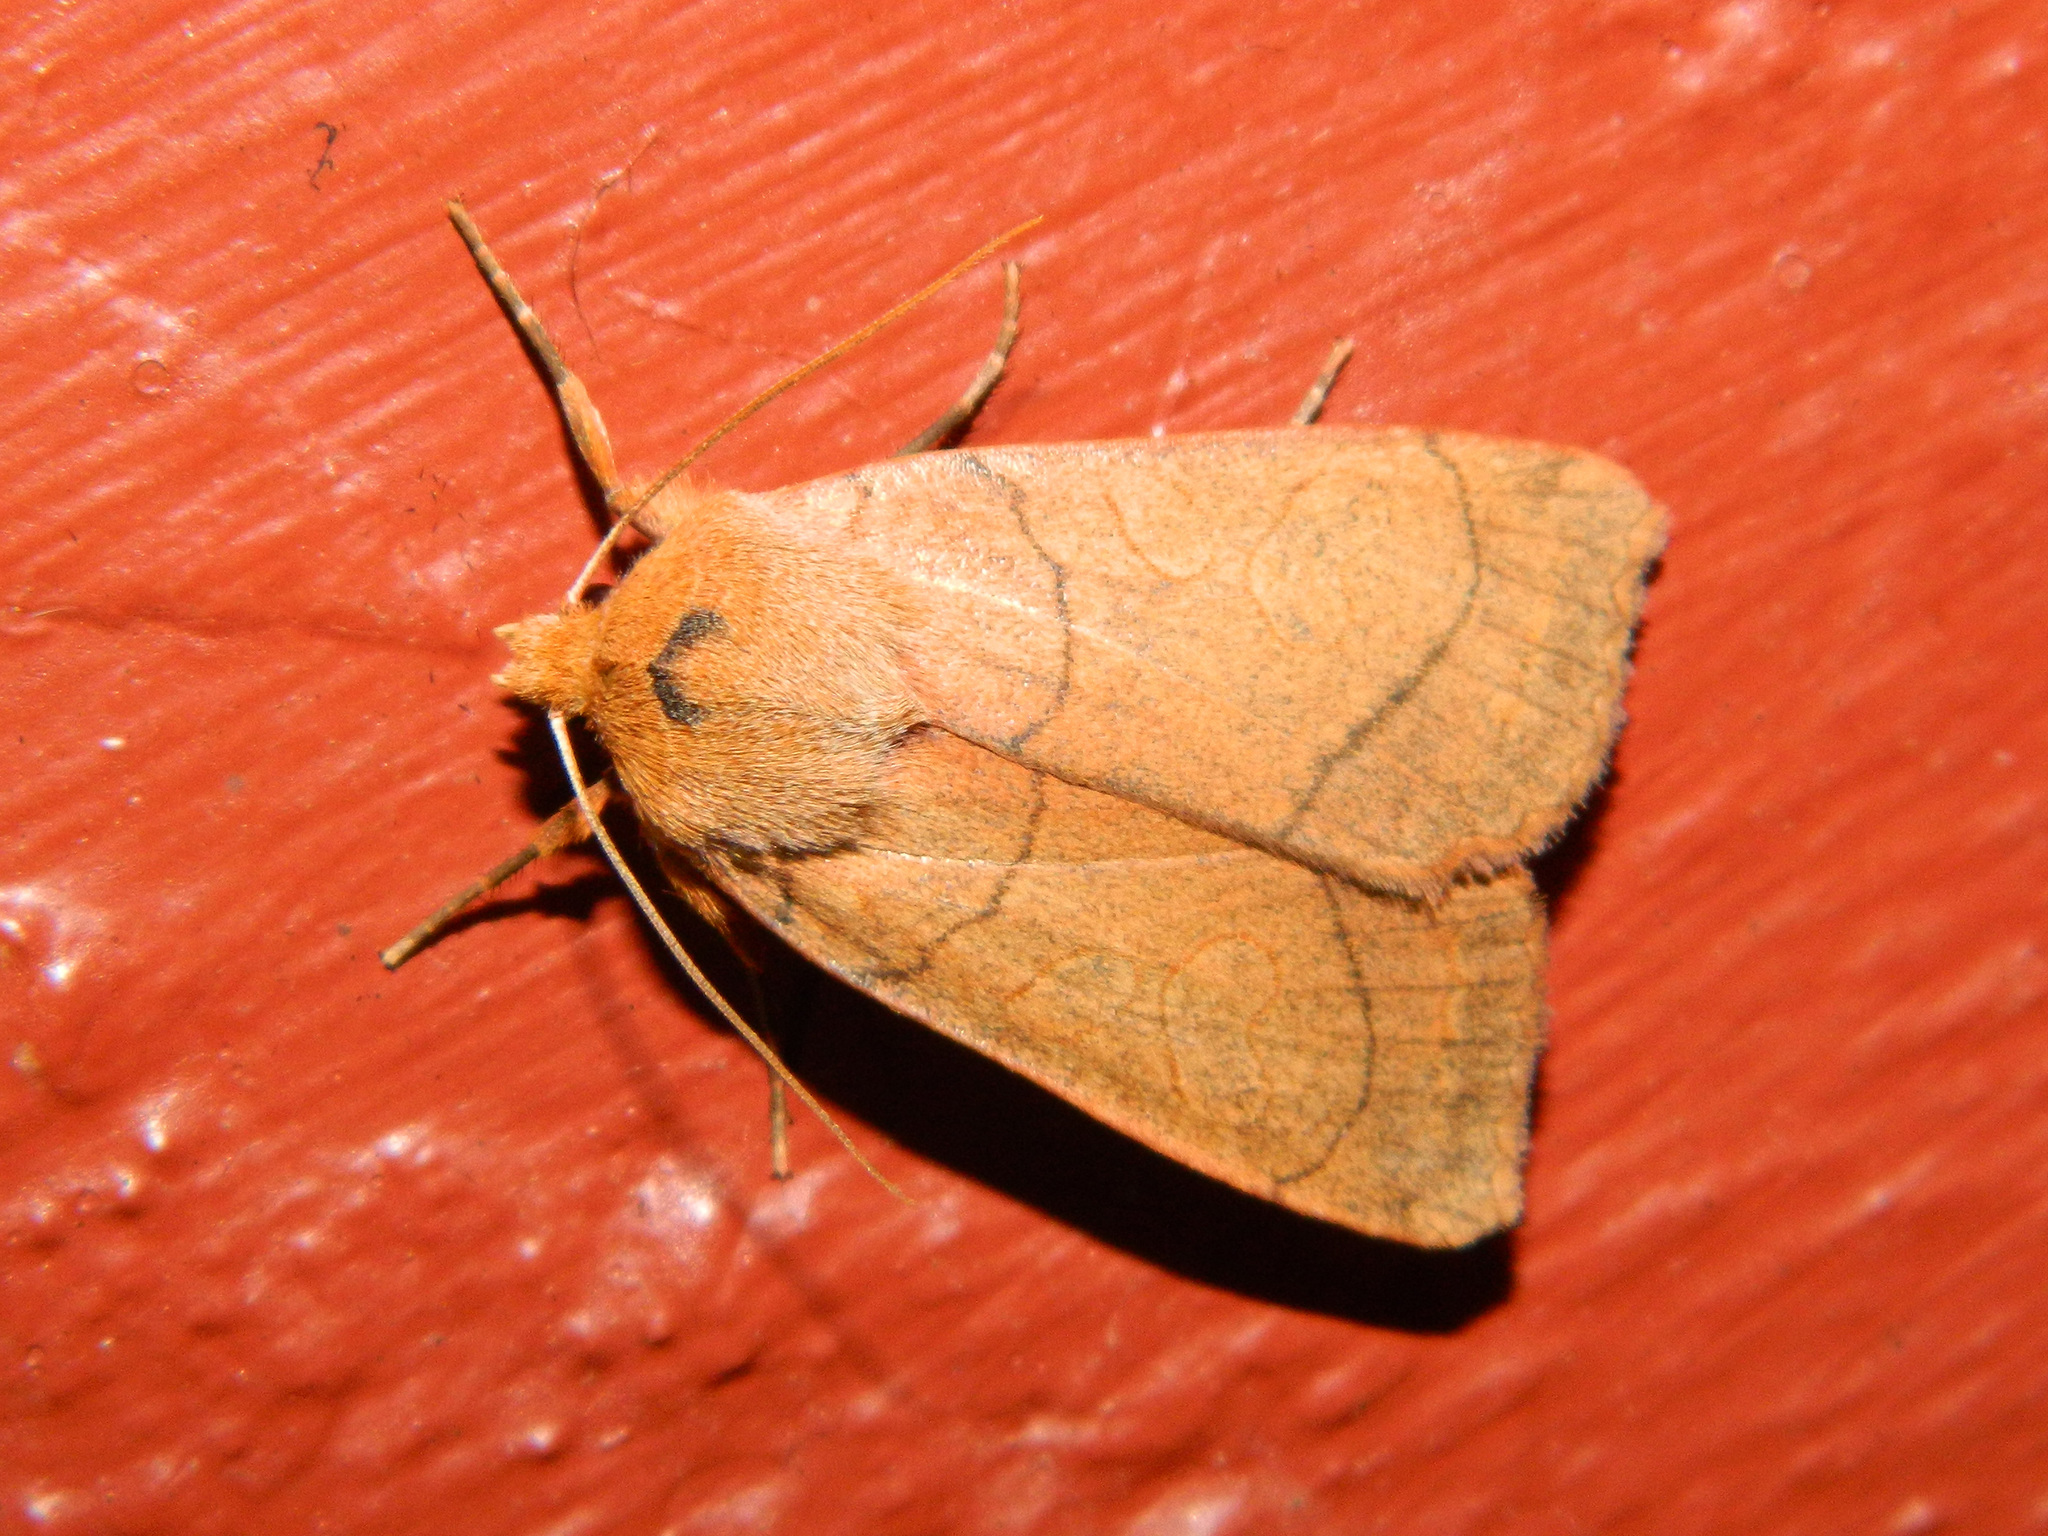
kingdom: Animalia
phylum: Arthropoda
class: Insecta
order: Lepidoptera
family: Noctuidae
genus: Metaxaglaea
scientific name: Metaxaglaea inulta
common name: Unsated sallow
